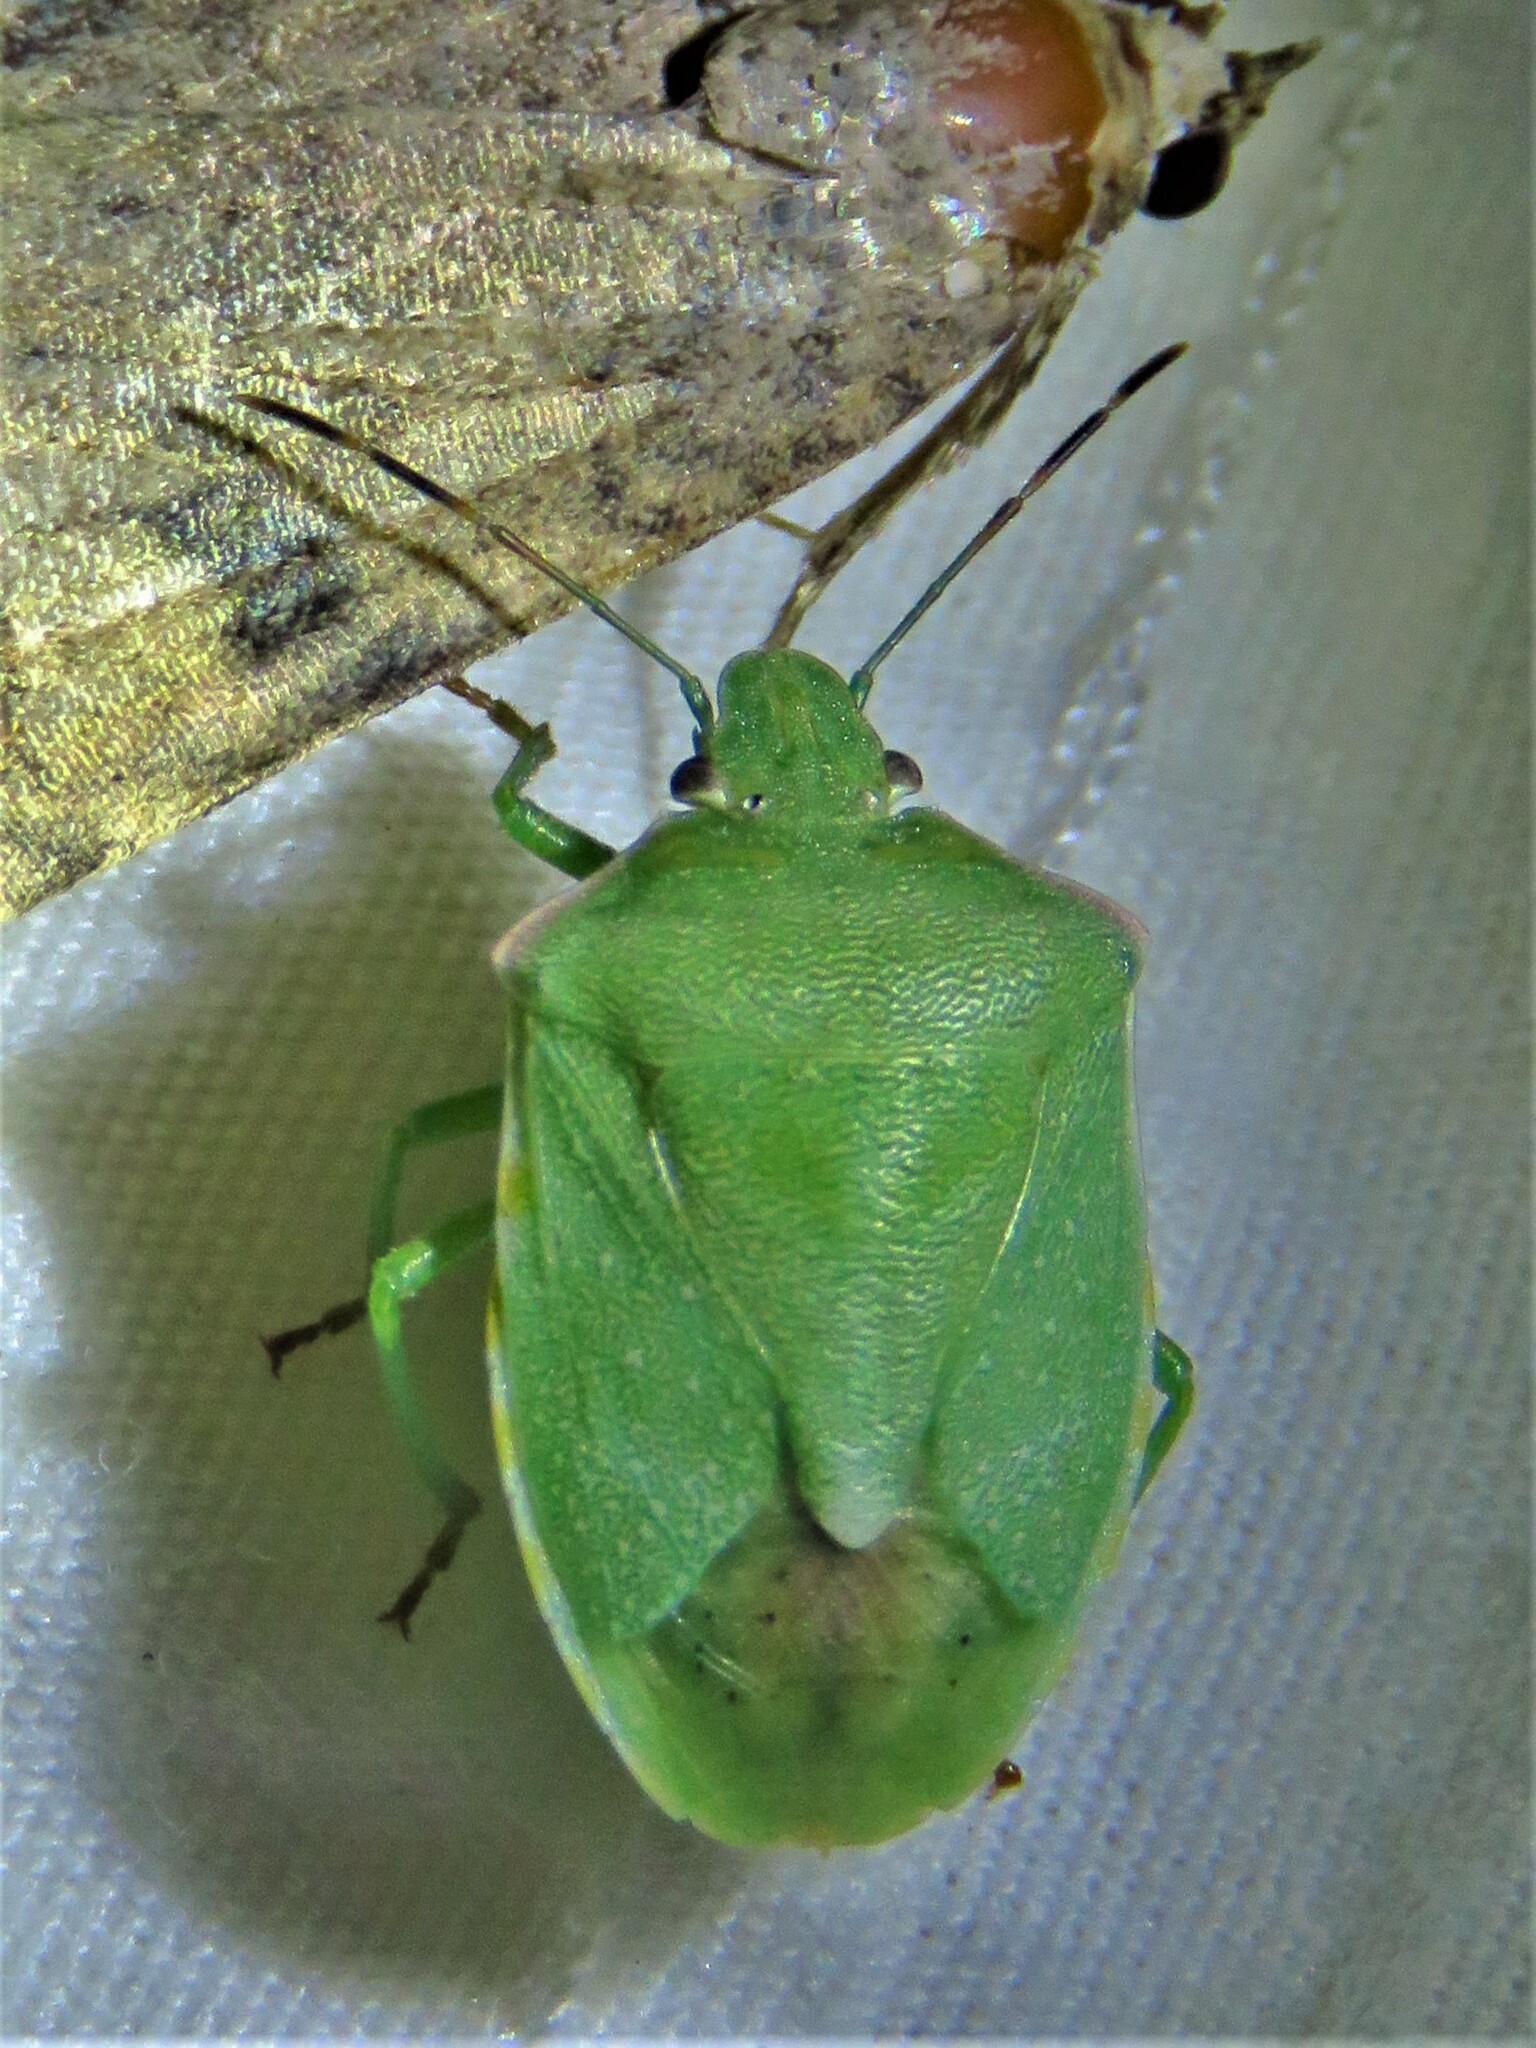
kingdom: Animalia
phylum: Arthropoda
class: Insecta
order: Hemiptera
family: Pentatomidae
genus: Thyanta
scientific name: Thyanta custator
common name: Stink bug
